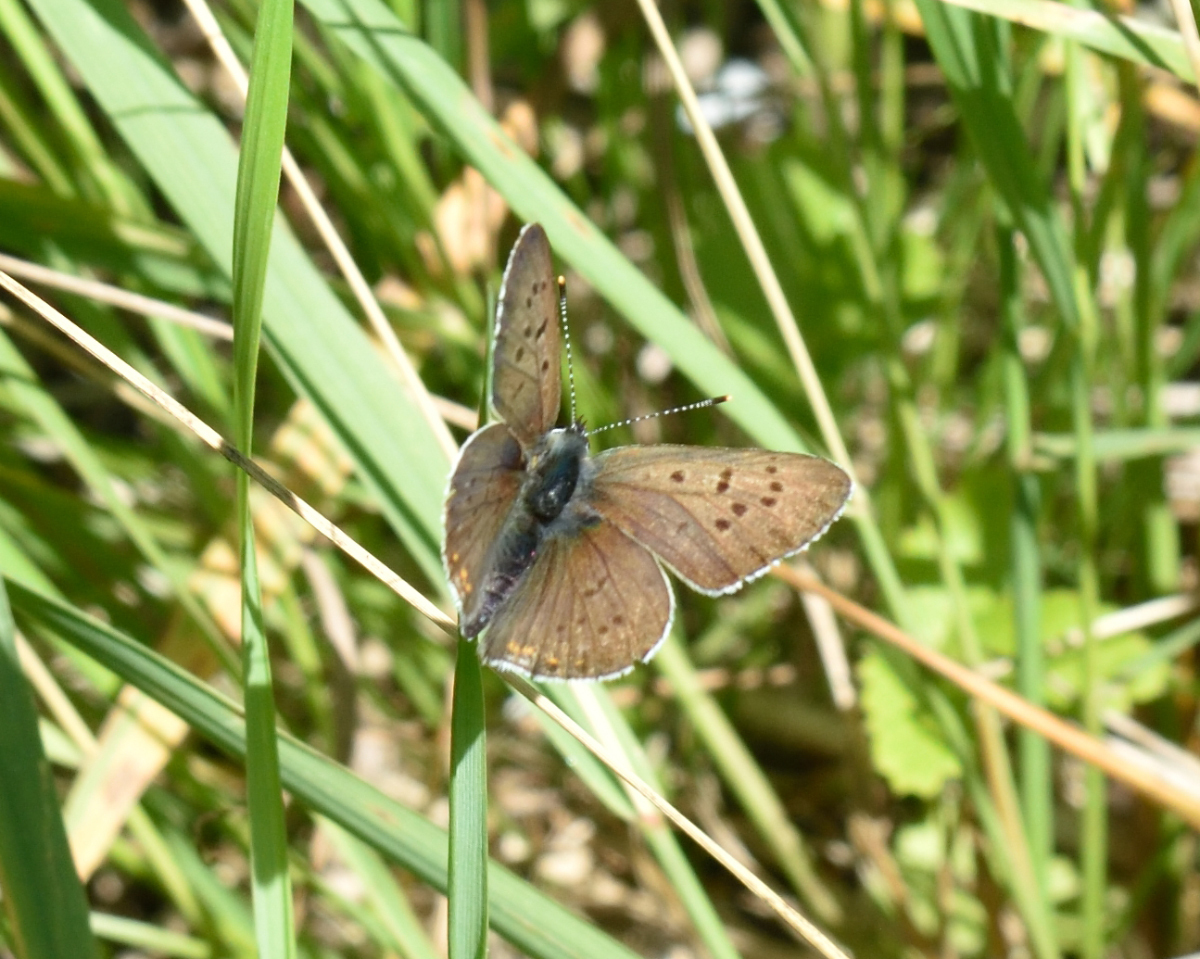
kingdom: Animalia
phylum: Arthropoda
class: Insecta
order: Lepidoptera
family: Lycaenidae
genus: Loweia
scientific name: Loweia tityrus
